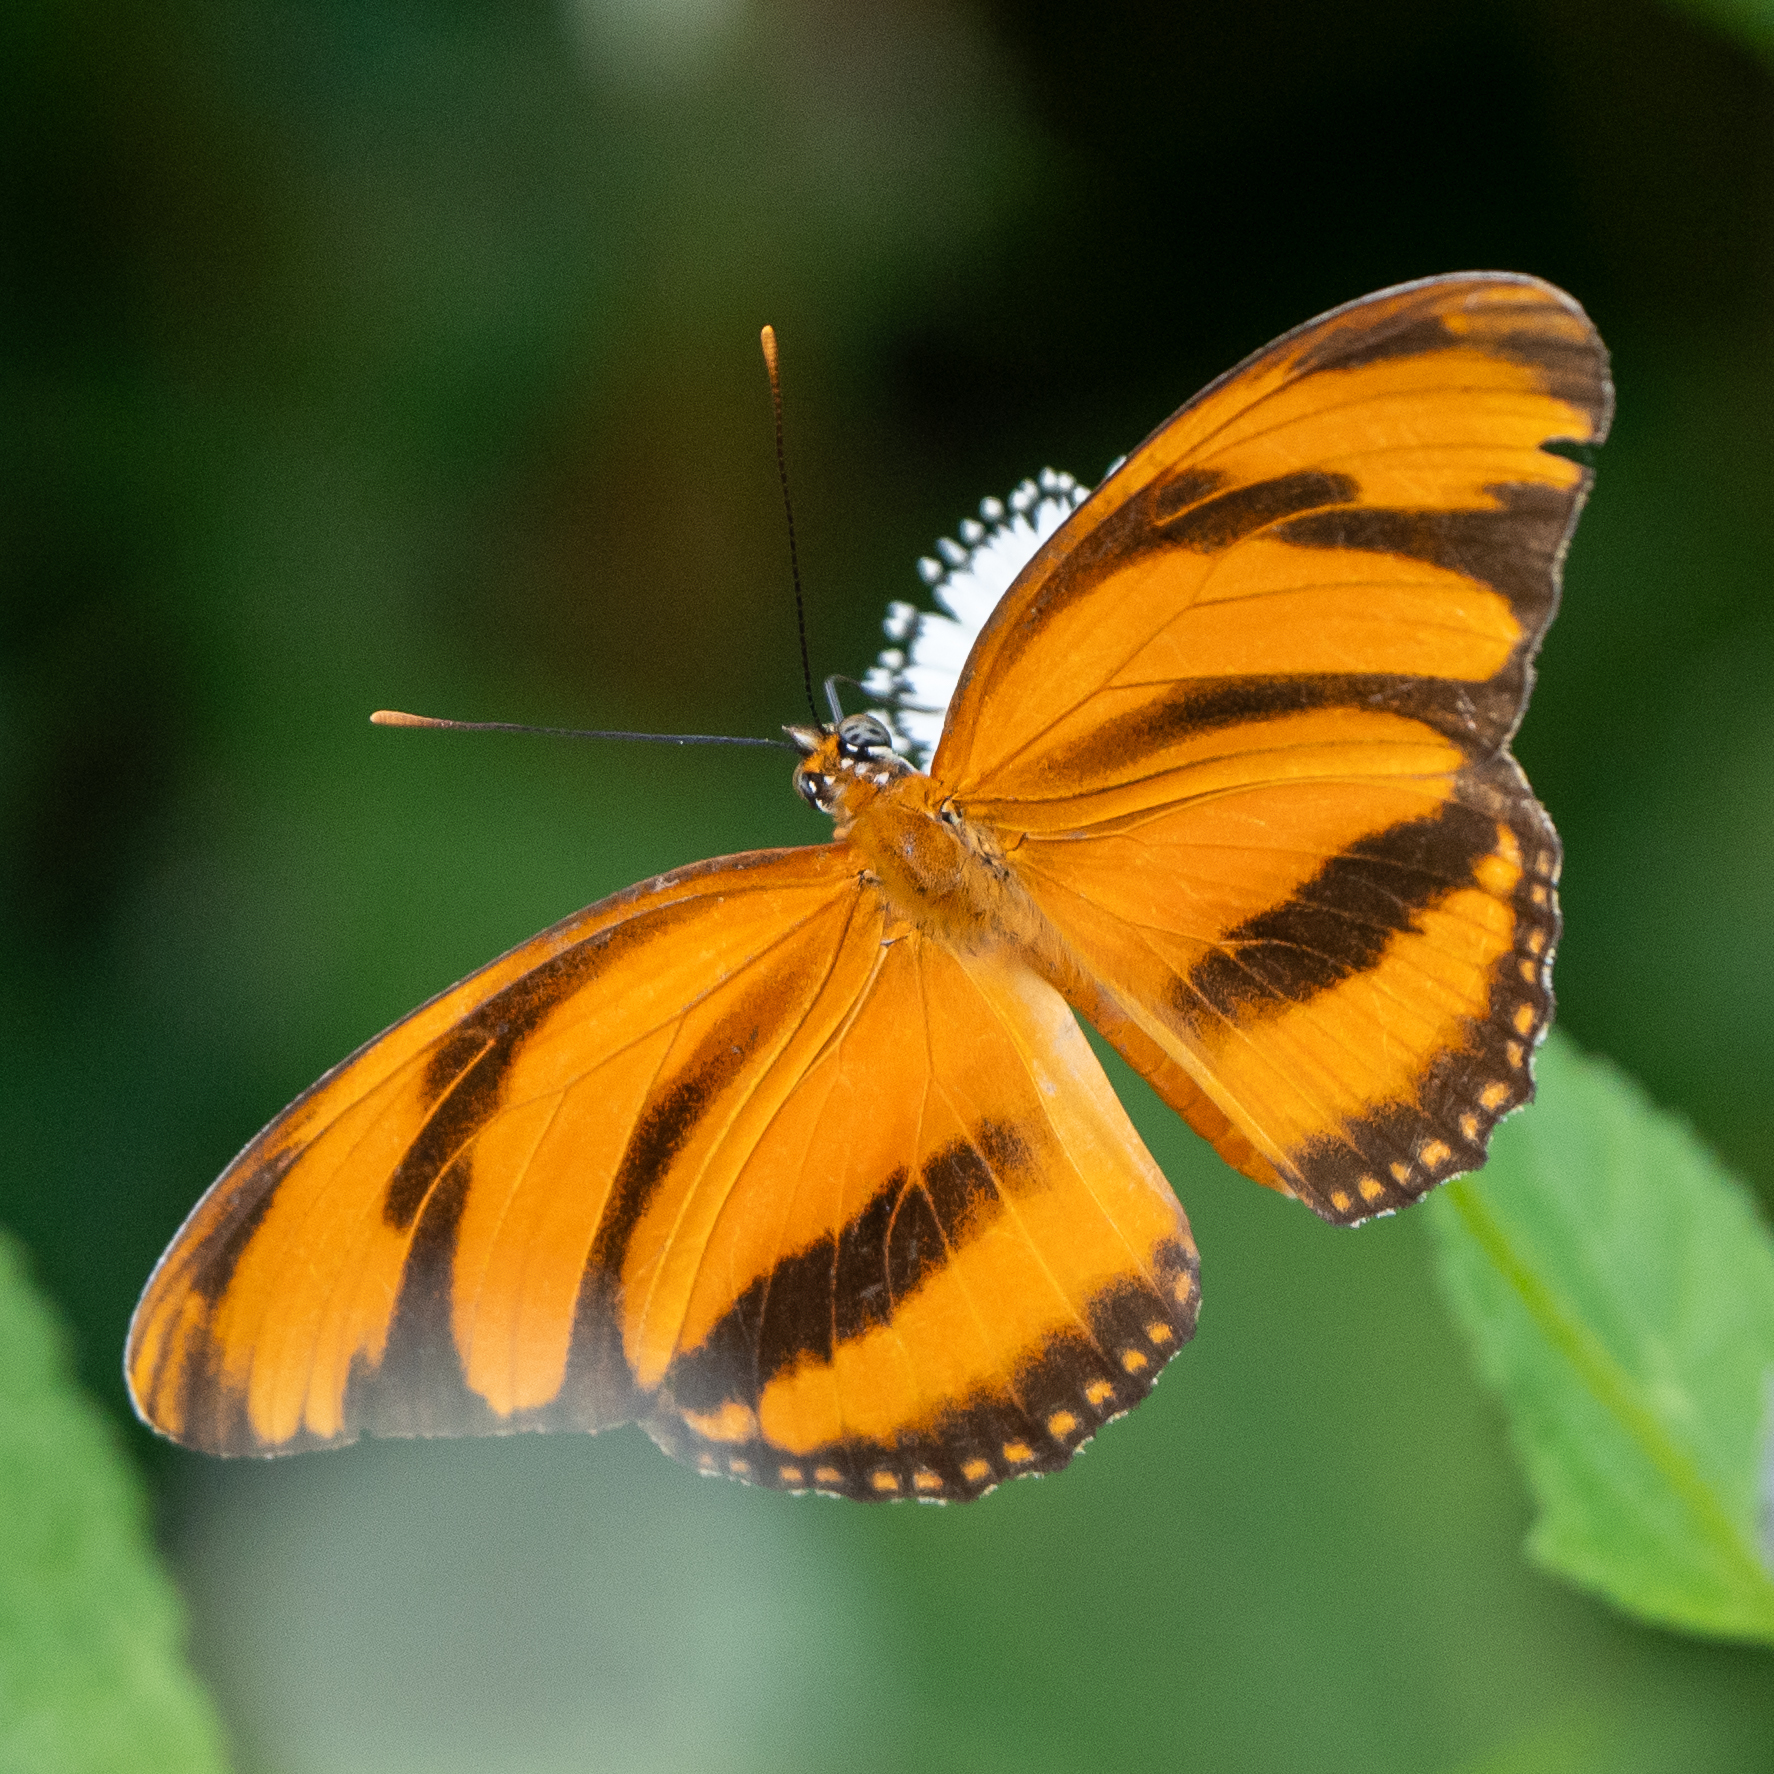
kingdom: Animalia
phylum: Arthropoda
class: Insecta
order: Lepidoptera
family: Nymphalidae
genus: Dryadula
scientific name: Dryadula phaetusa
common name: Banded orange heliconian
